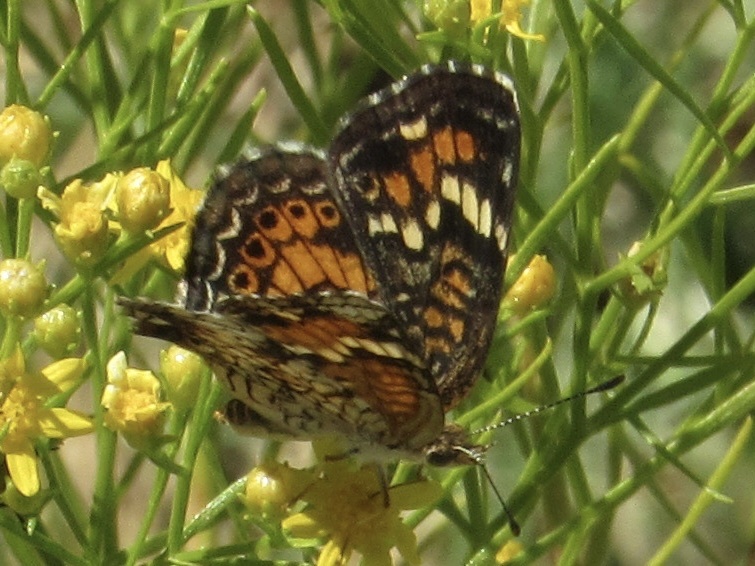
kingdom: Animalia
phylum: Arthropoda
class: Insecta
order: Lepidoptera
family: Nymphalidae
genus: Phyciodes
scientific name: Phyciodes phaon
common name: Phaon crescent
